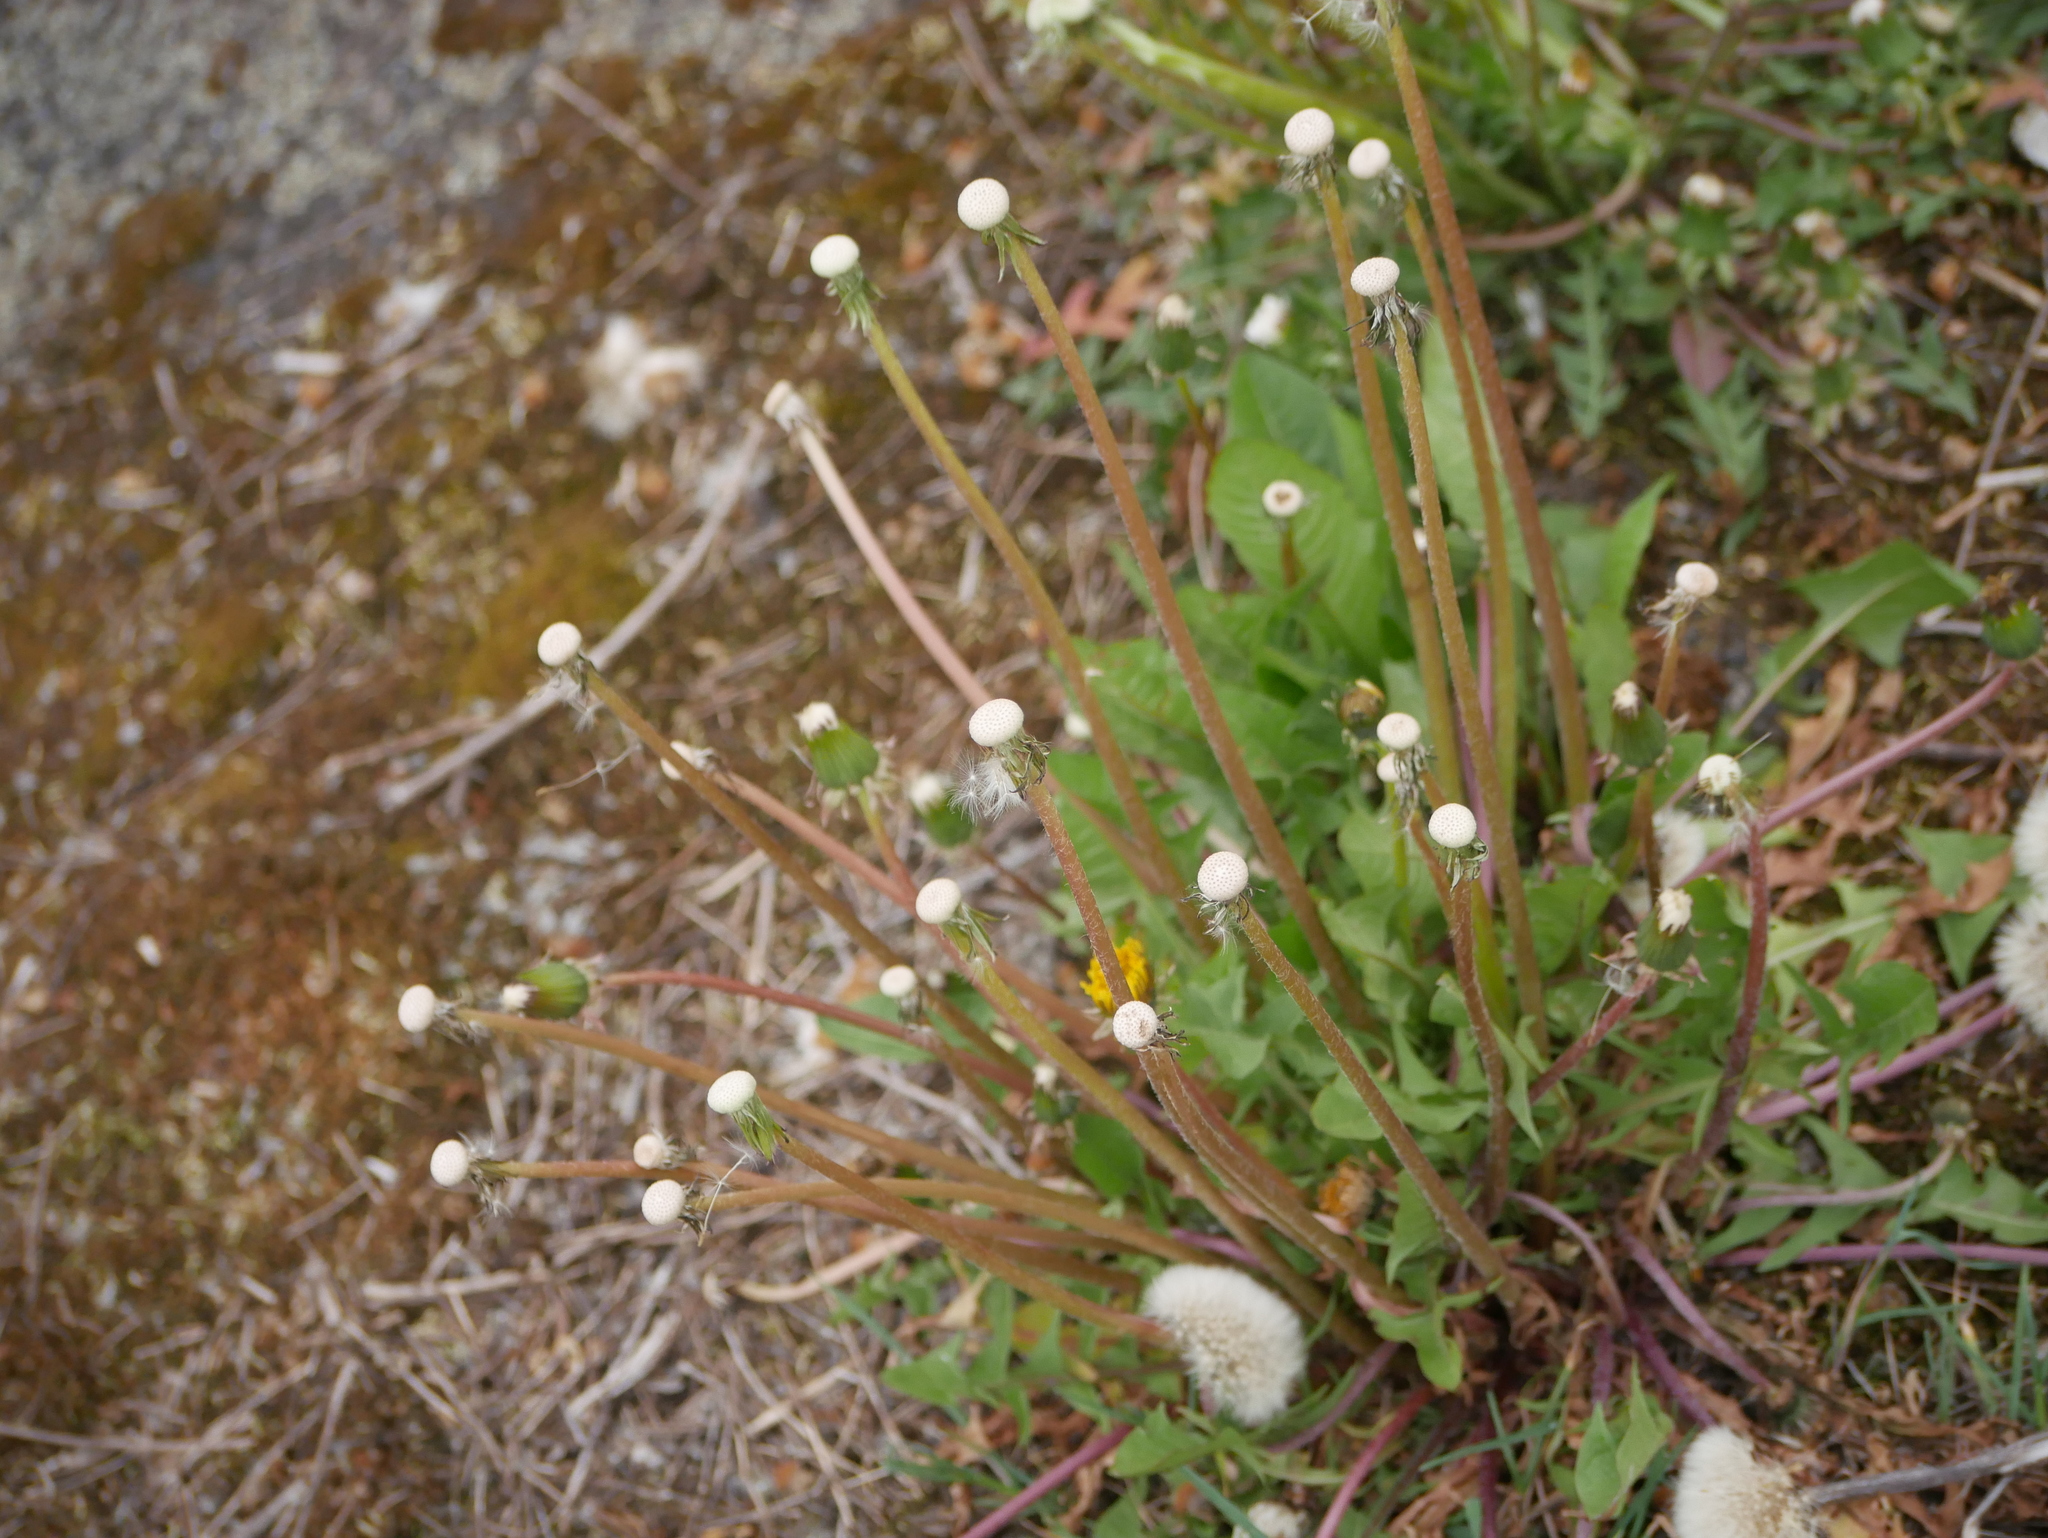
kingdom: Plantae
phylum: Tracheophyta
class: Magnoliopsida
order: Asterales
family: Asteraceae
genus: Taraxacum
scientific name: Taraxacum officinale
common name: Common dandelion
